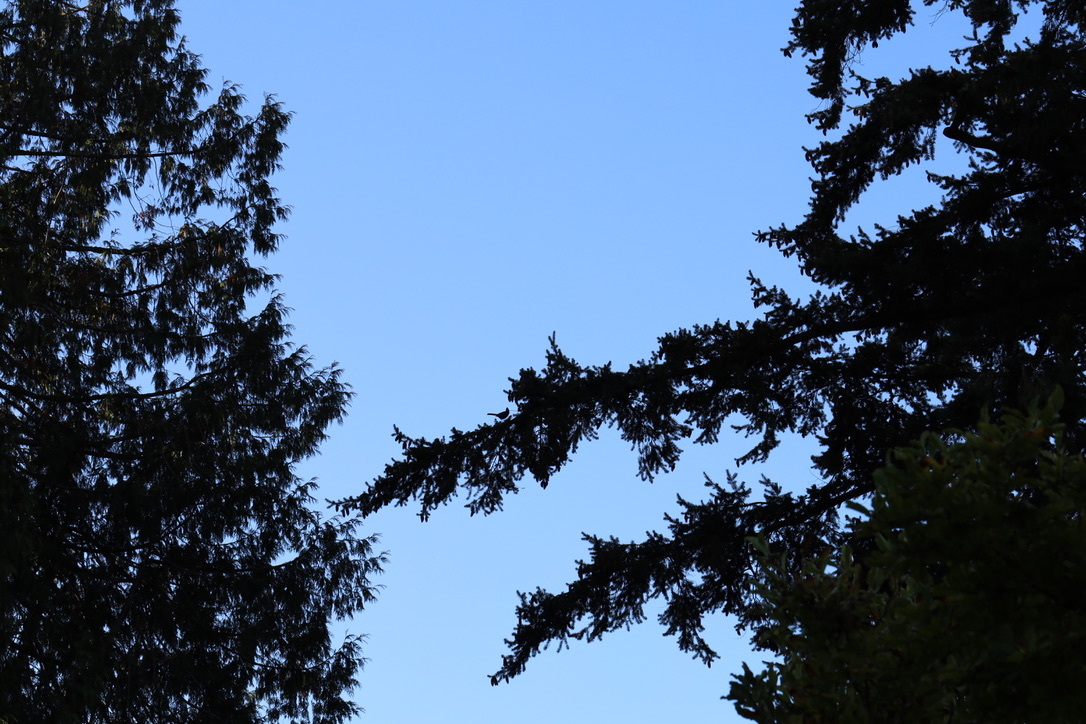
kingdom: Animalia
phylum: Chordata
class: Aves
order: Passeriformes
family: Corvidae
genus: Cyanocitta
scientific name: Cyanocitta stelleri
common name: Steller's jay
